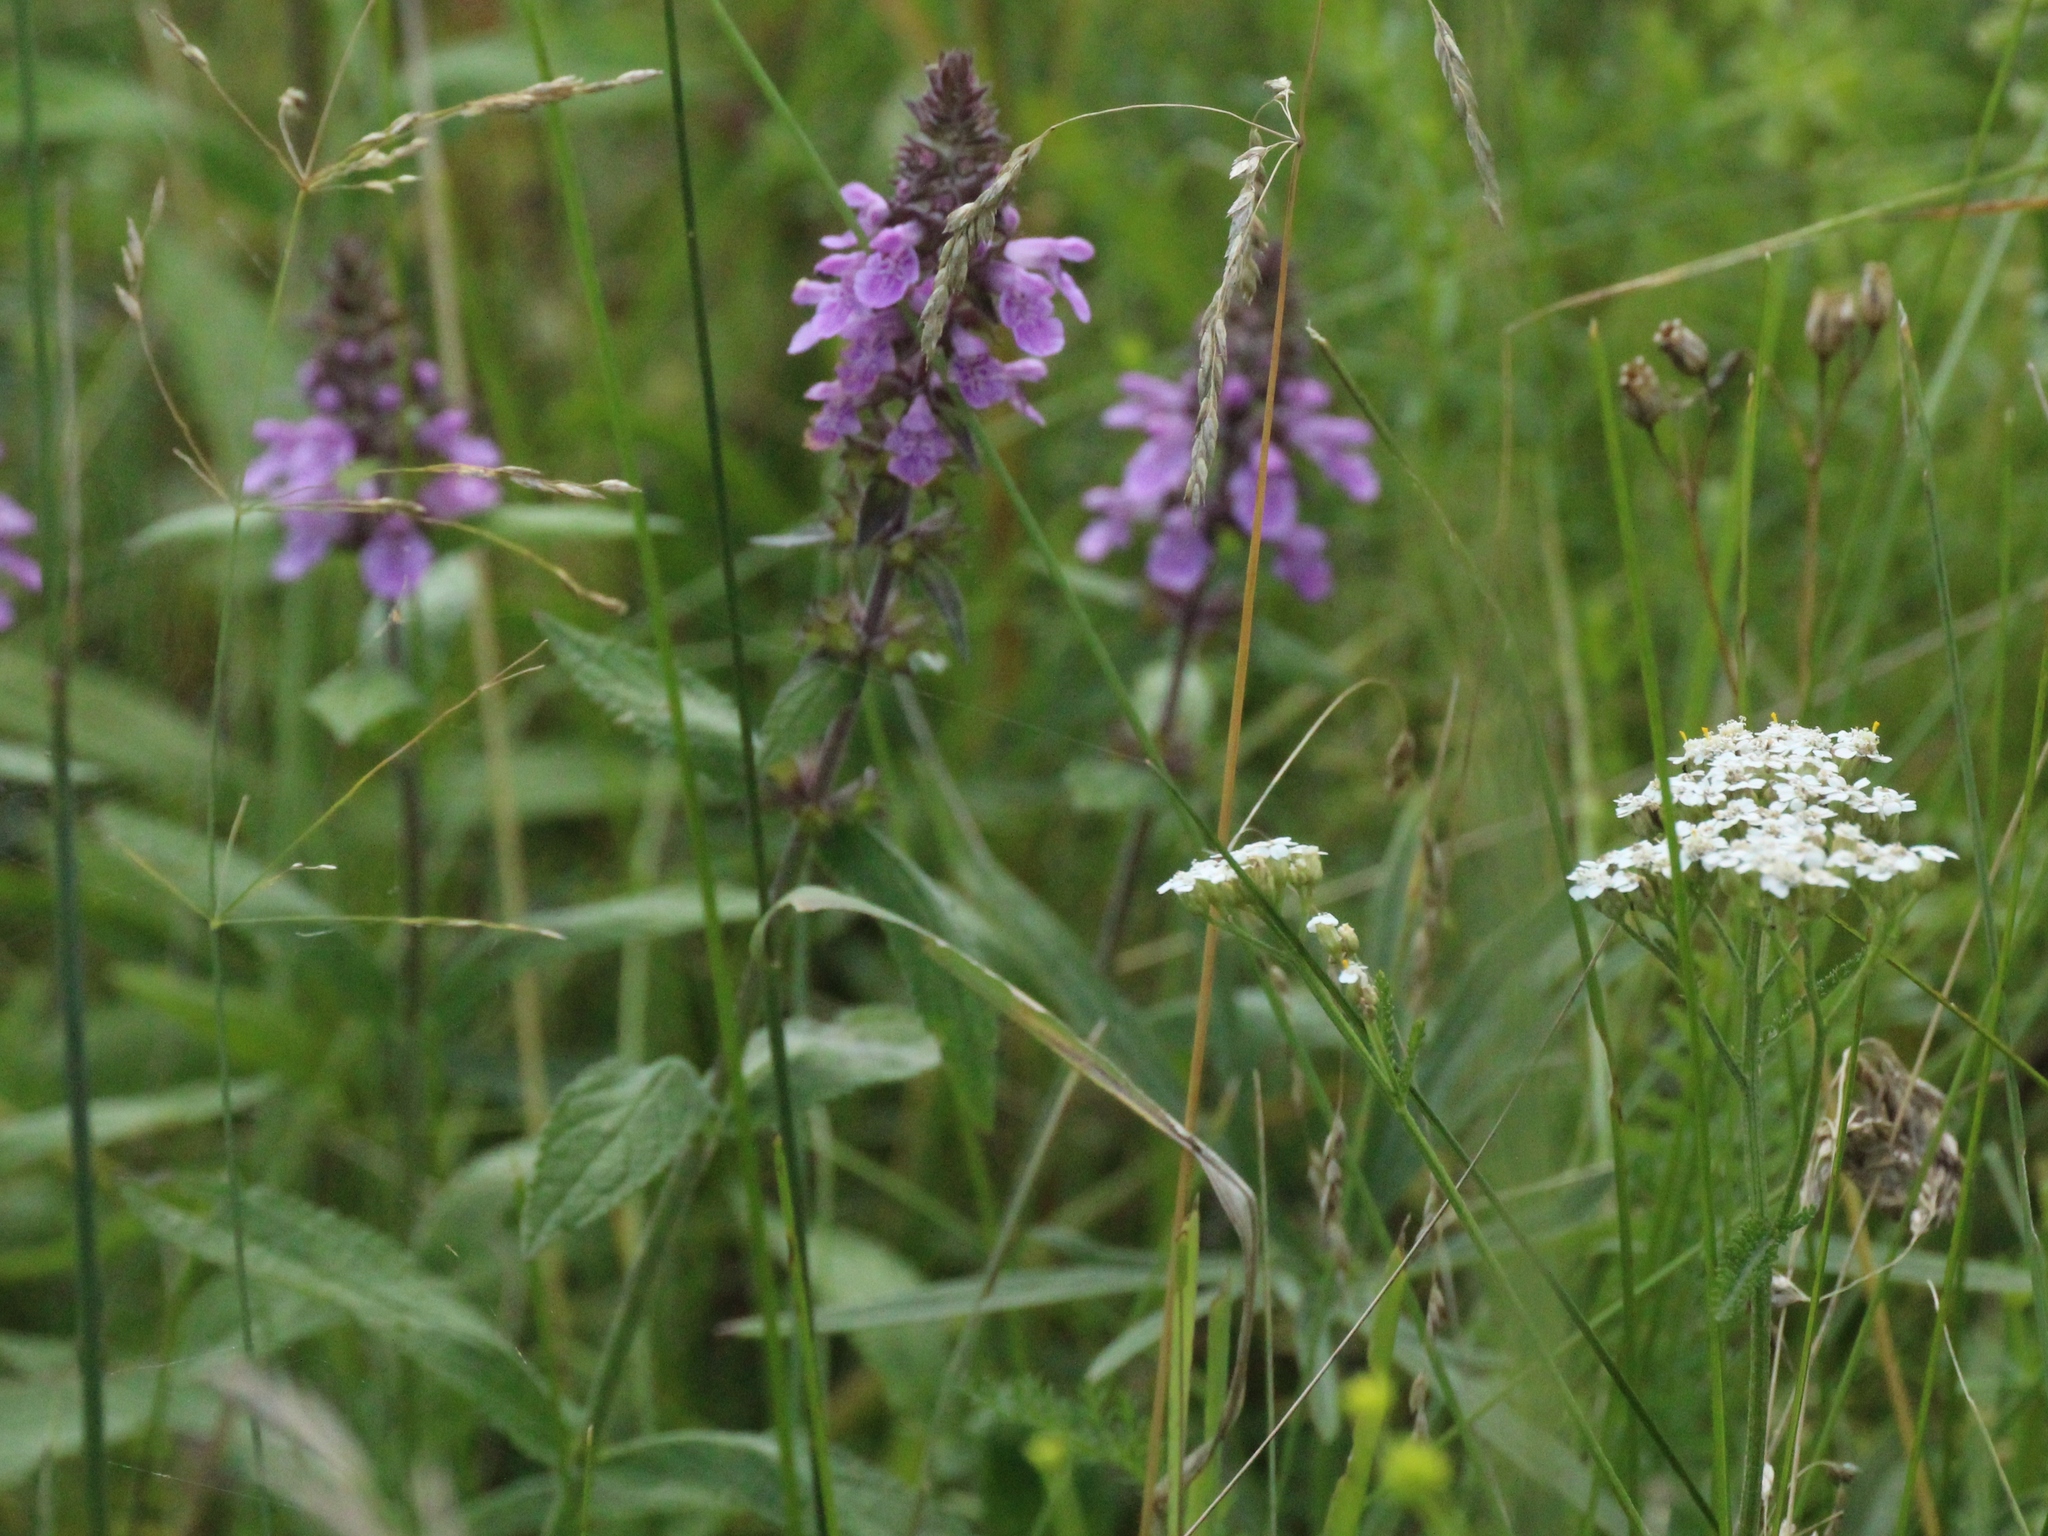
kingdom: Plantae
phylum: Tracheophyta
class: Magnoliopsida
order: Lamiales
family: Lamiaceae
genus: Stachys
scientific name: Stachys palustris
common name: Marsh woundwort
